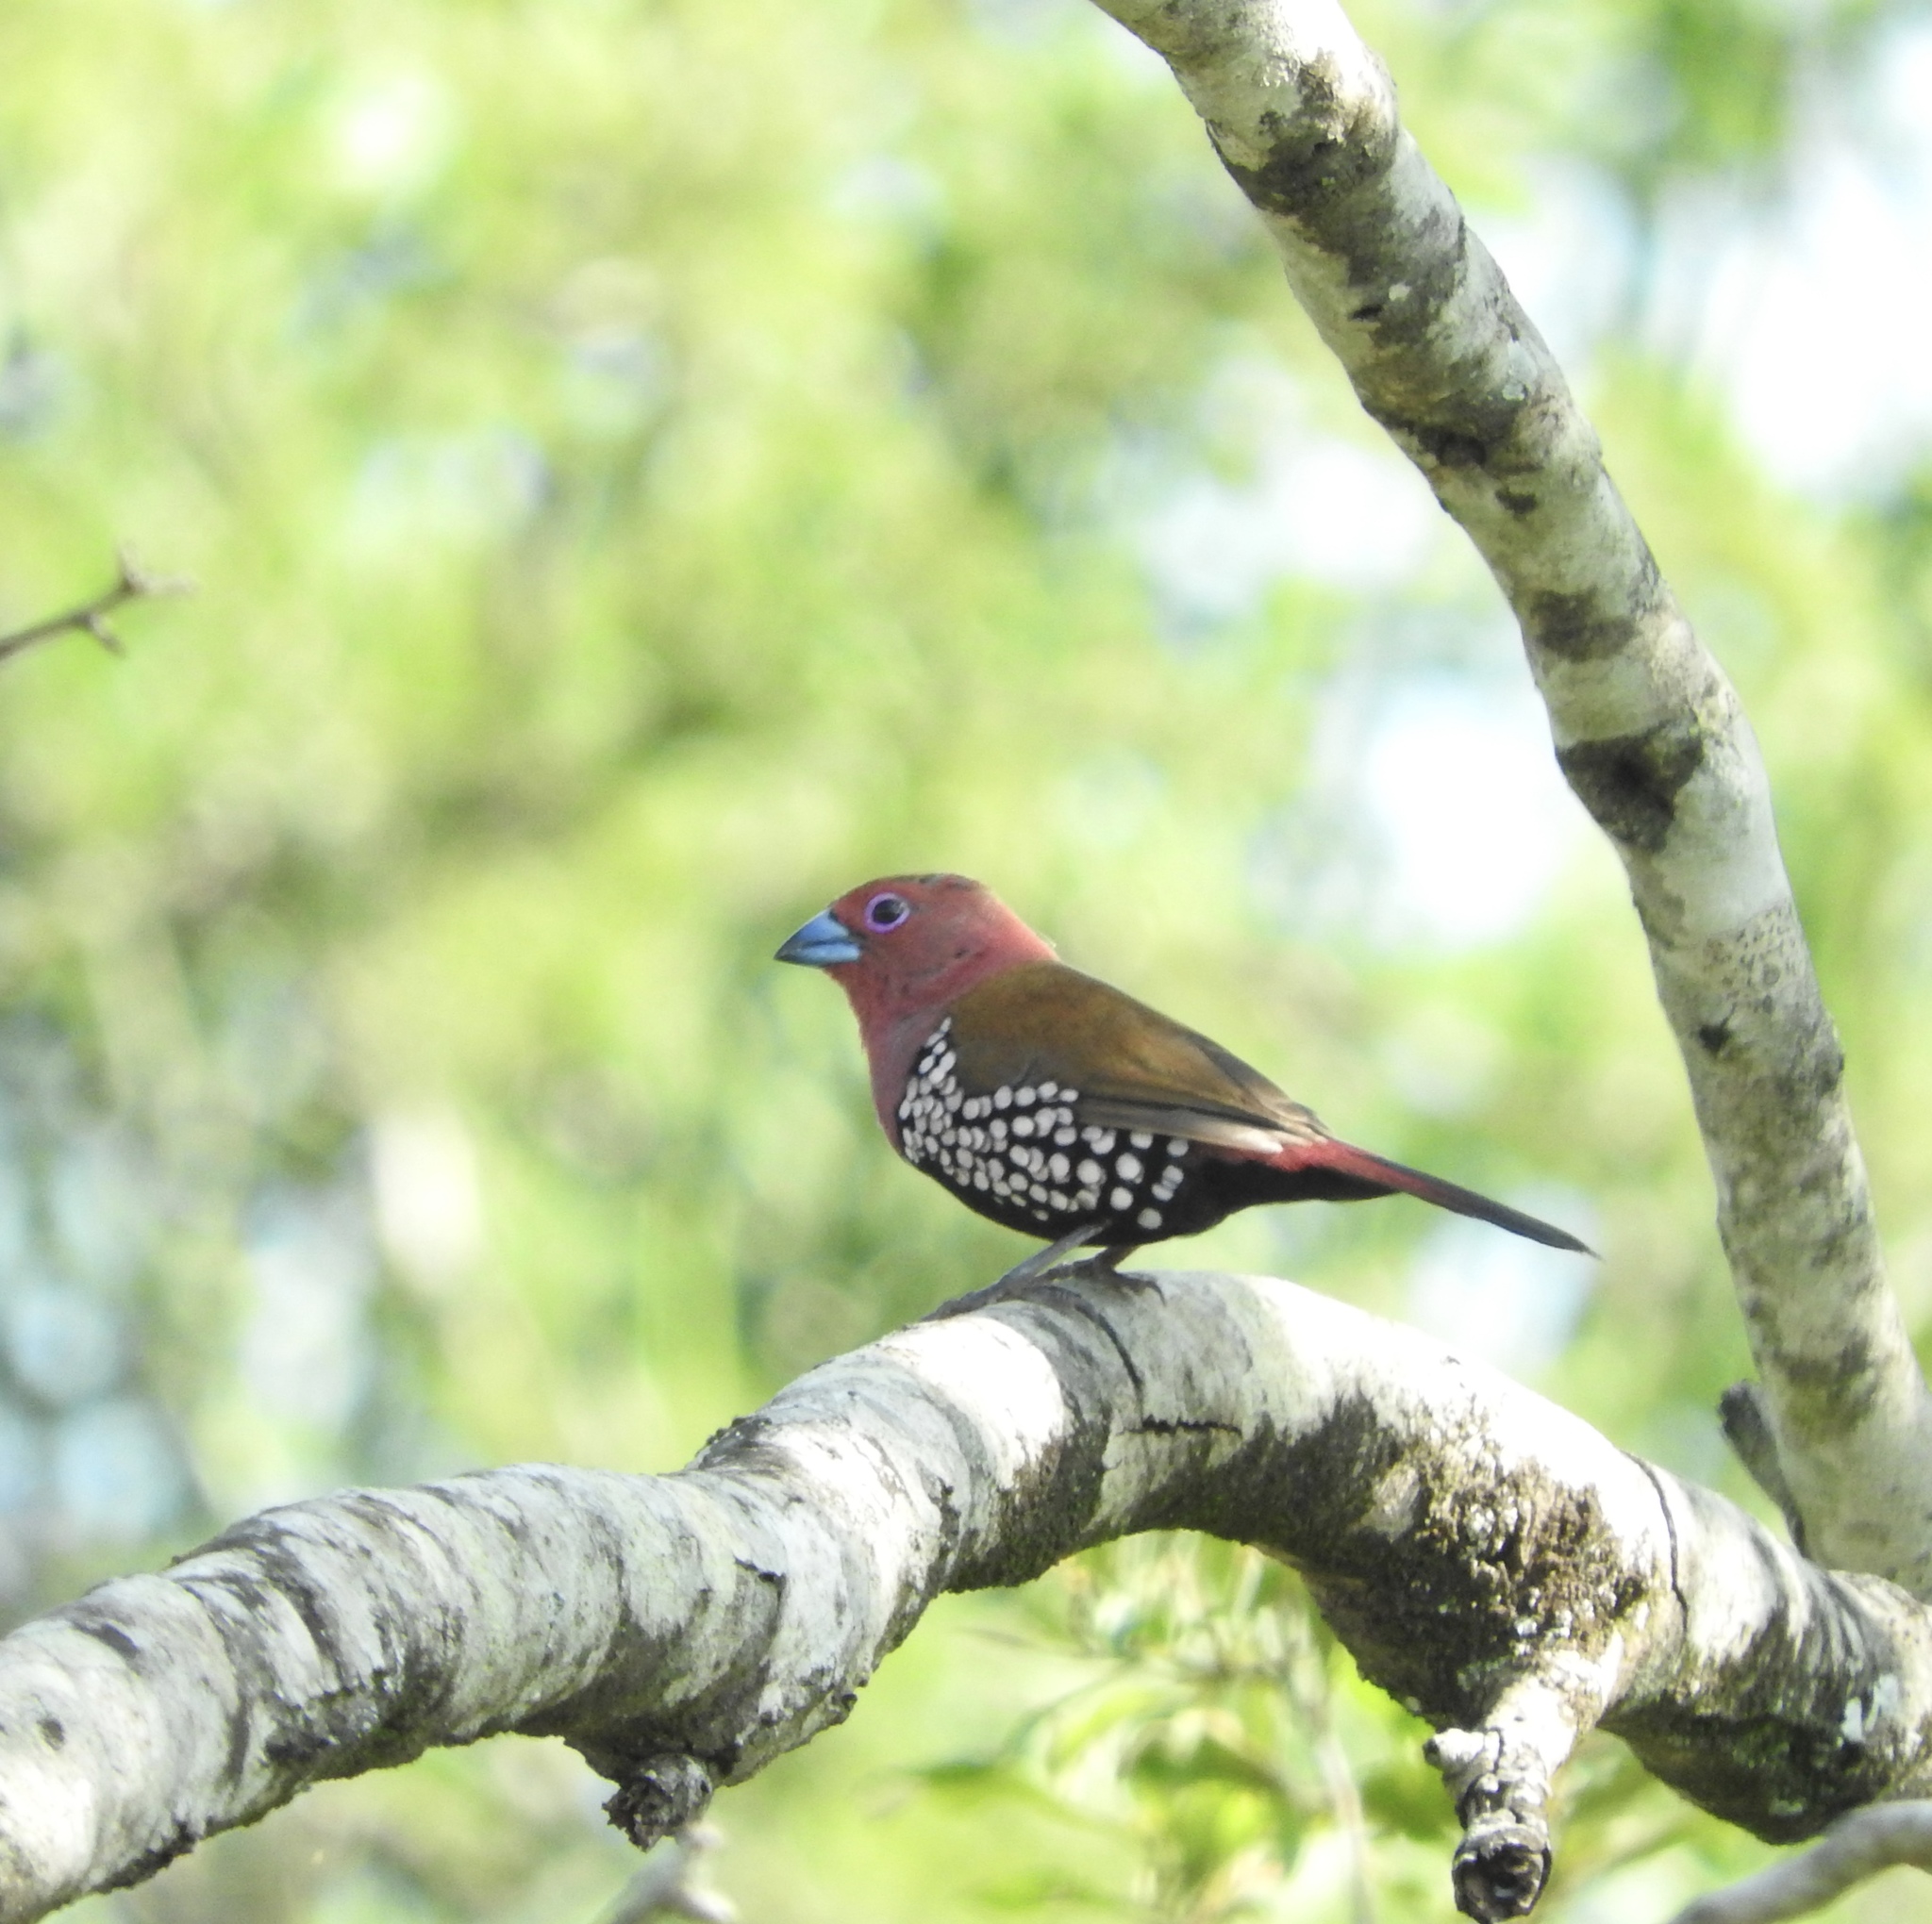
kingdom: Animalia
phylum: Chordata
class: Aves
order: Passeriformes
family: Estrildidae
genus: Hypargos
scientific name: Hypargos margaritatus
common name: Pink-throated twinspot
